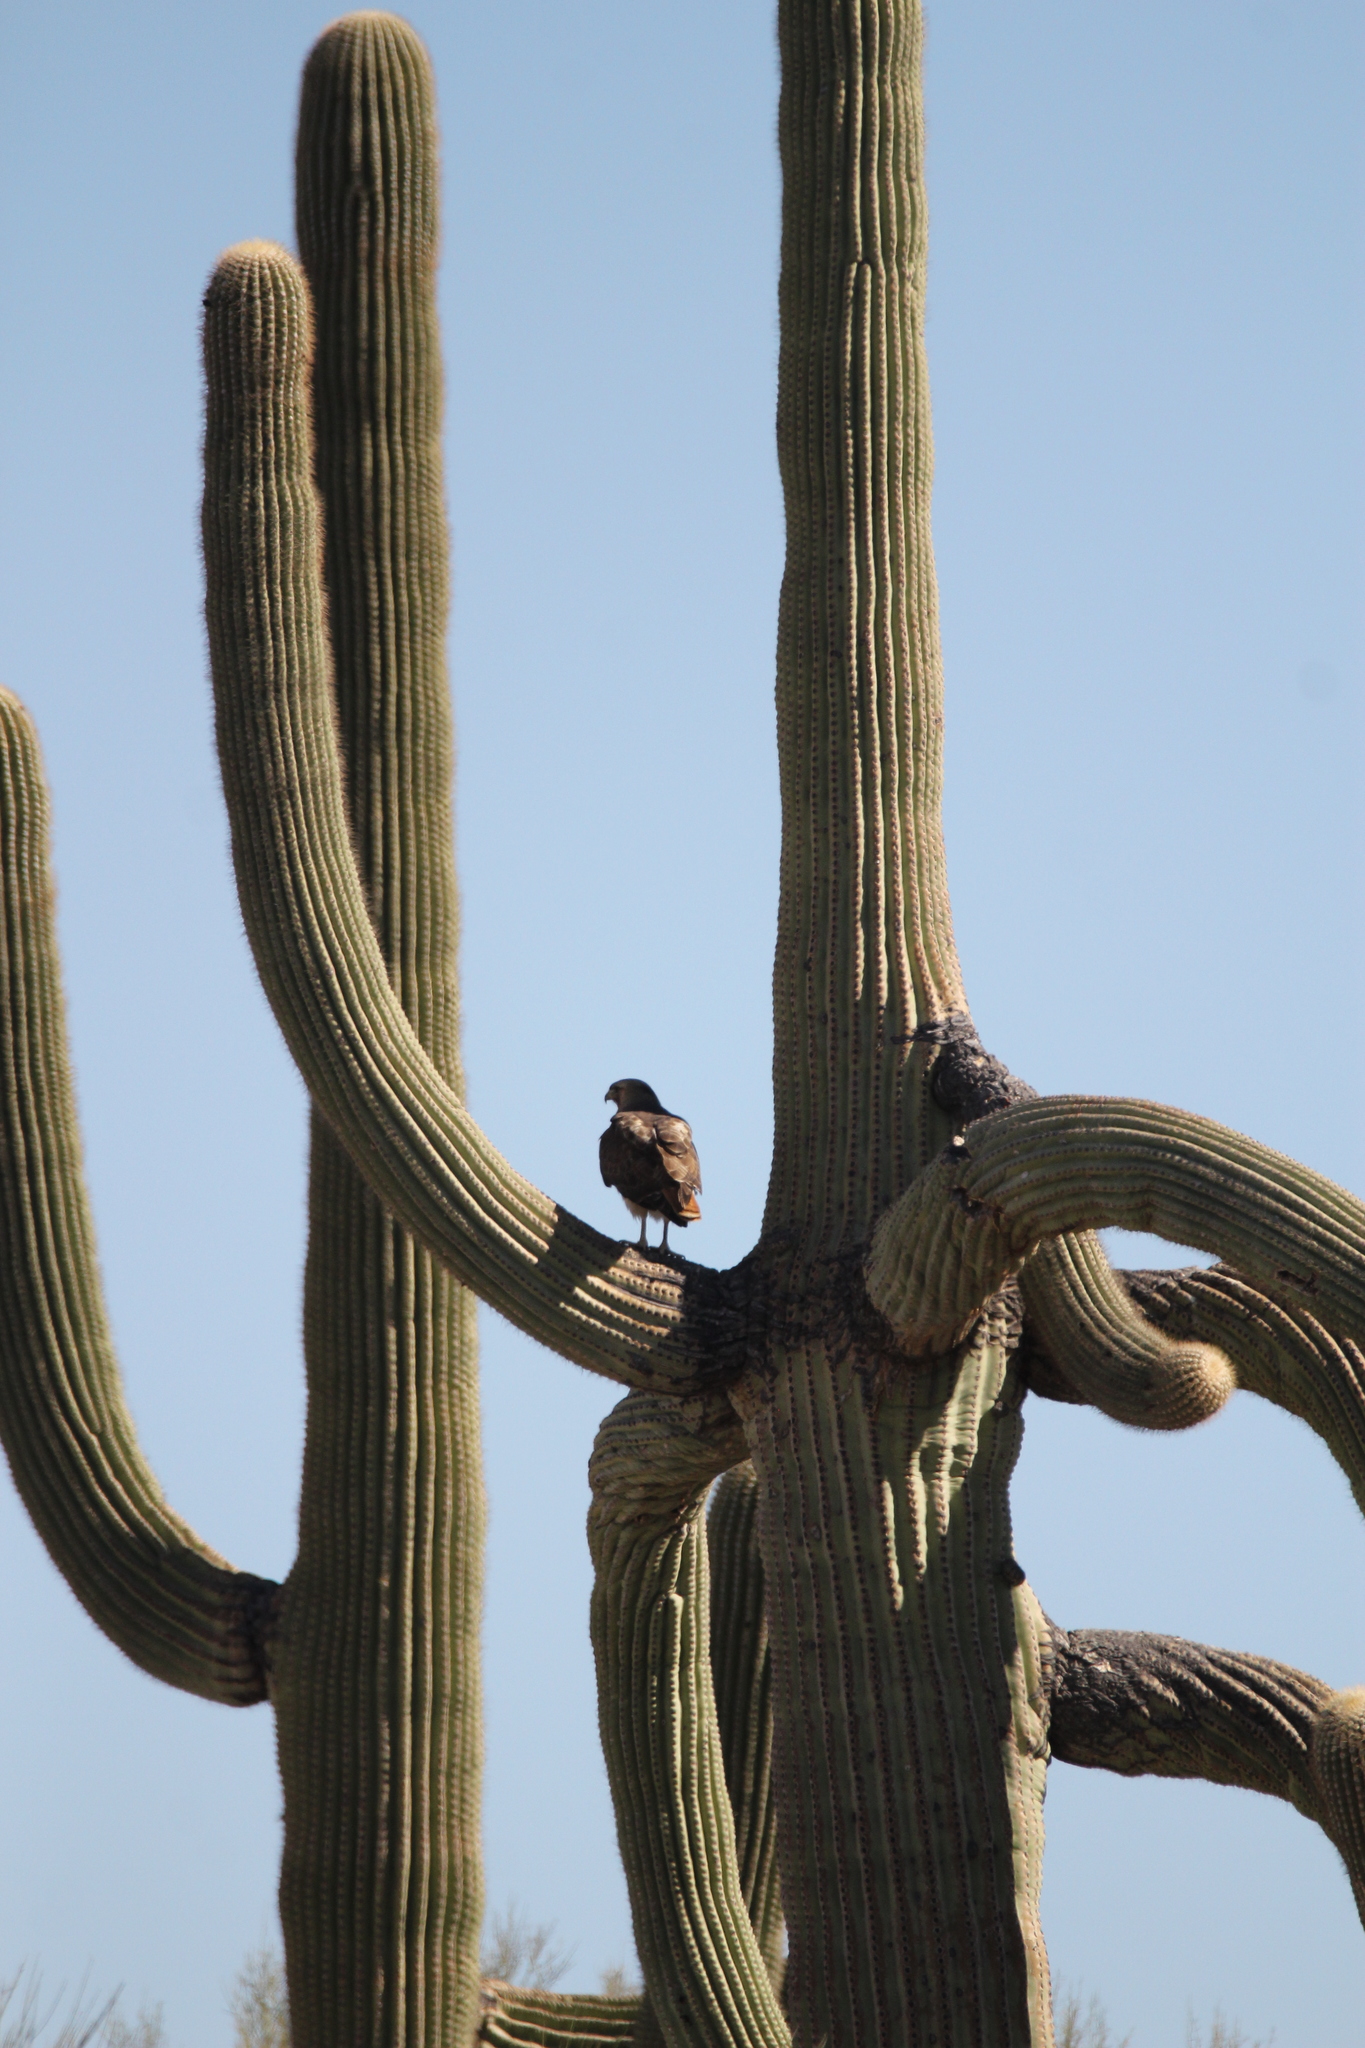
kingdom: Animalia
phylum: Chordata
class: Aves
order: Accipitriformes
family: Accipitridae
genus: Buteo
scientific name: Buteo jamaicensis
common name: Red-tailed hawk
